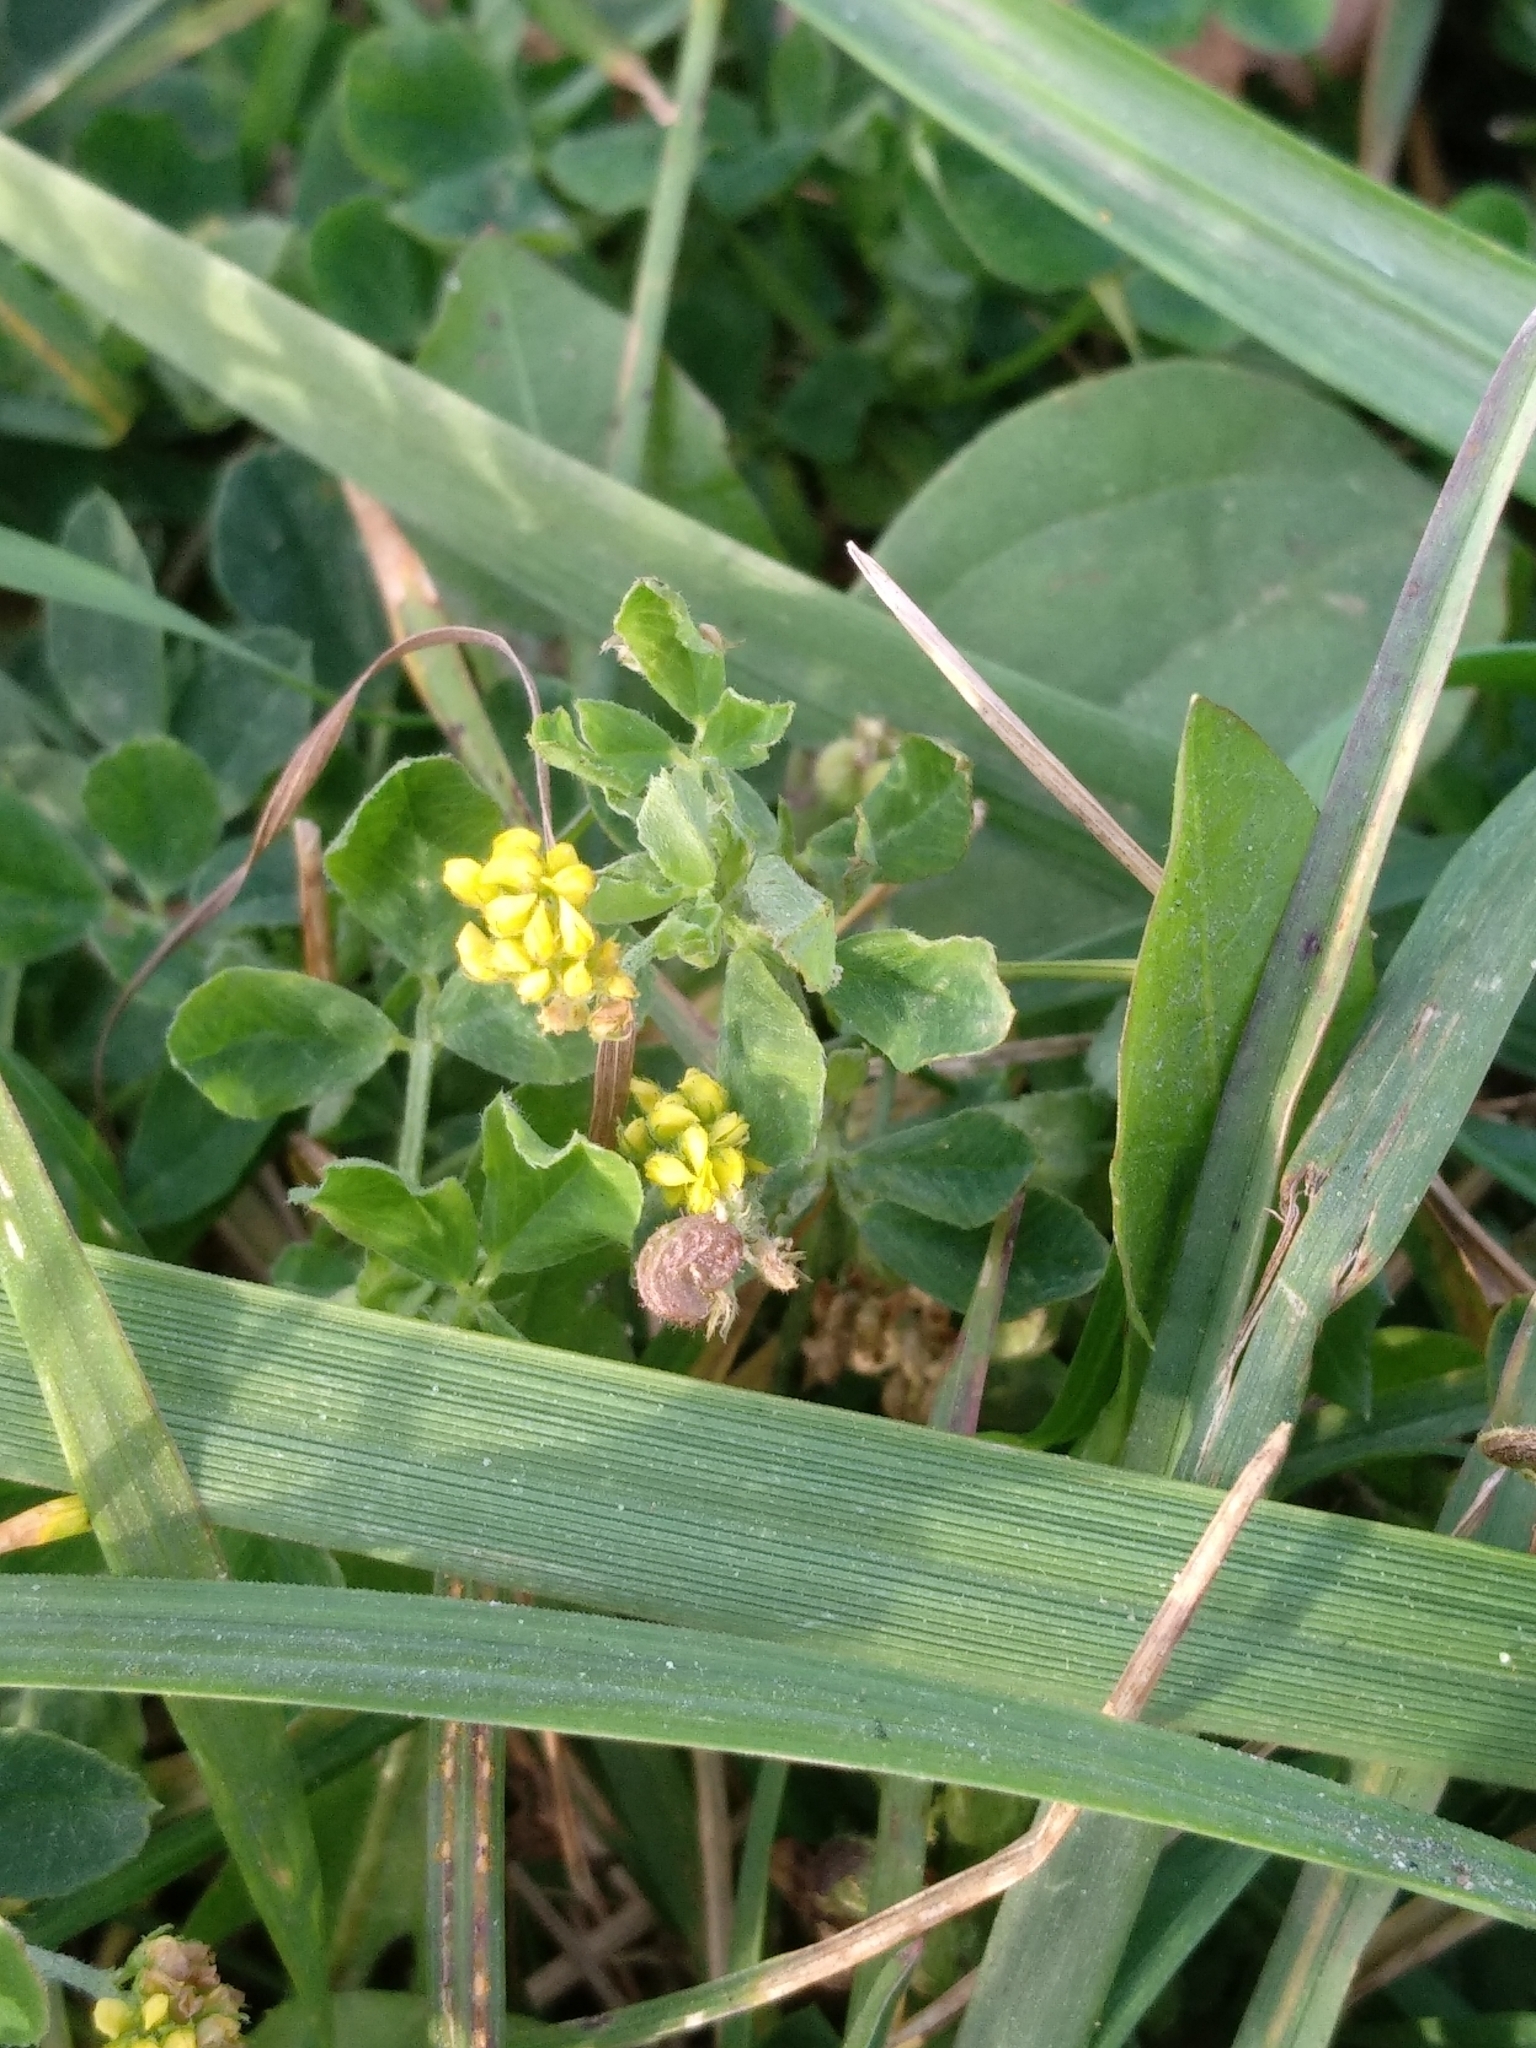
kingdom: Plantae
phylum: Tracheophyta
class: Magnoliopsida
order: Fabales
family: Fabaceae
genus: Medicago
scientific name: Medicago lupulina
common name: Black medick
